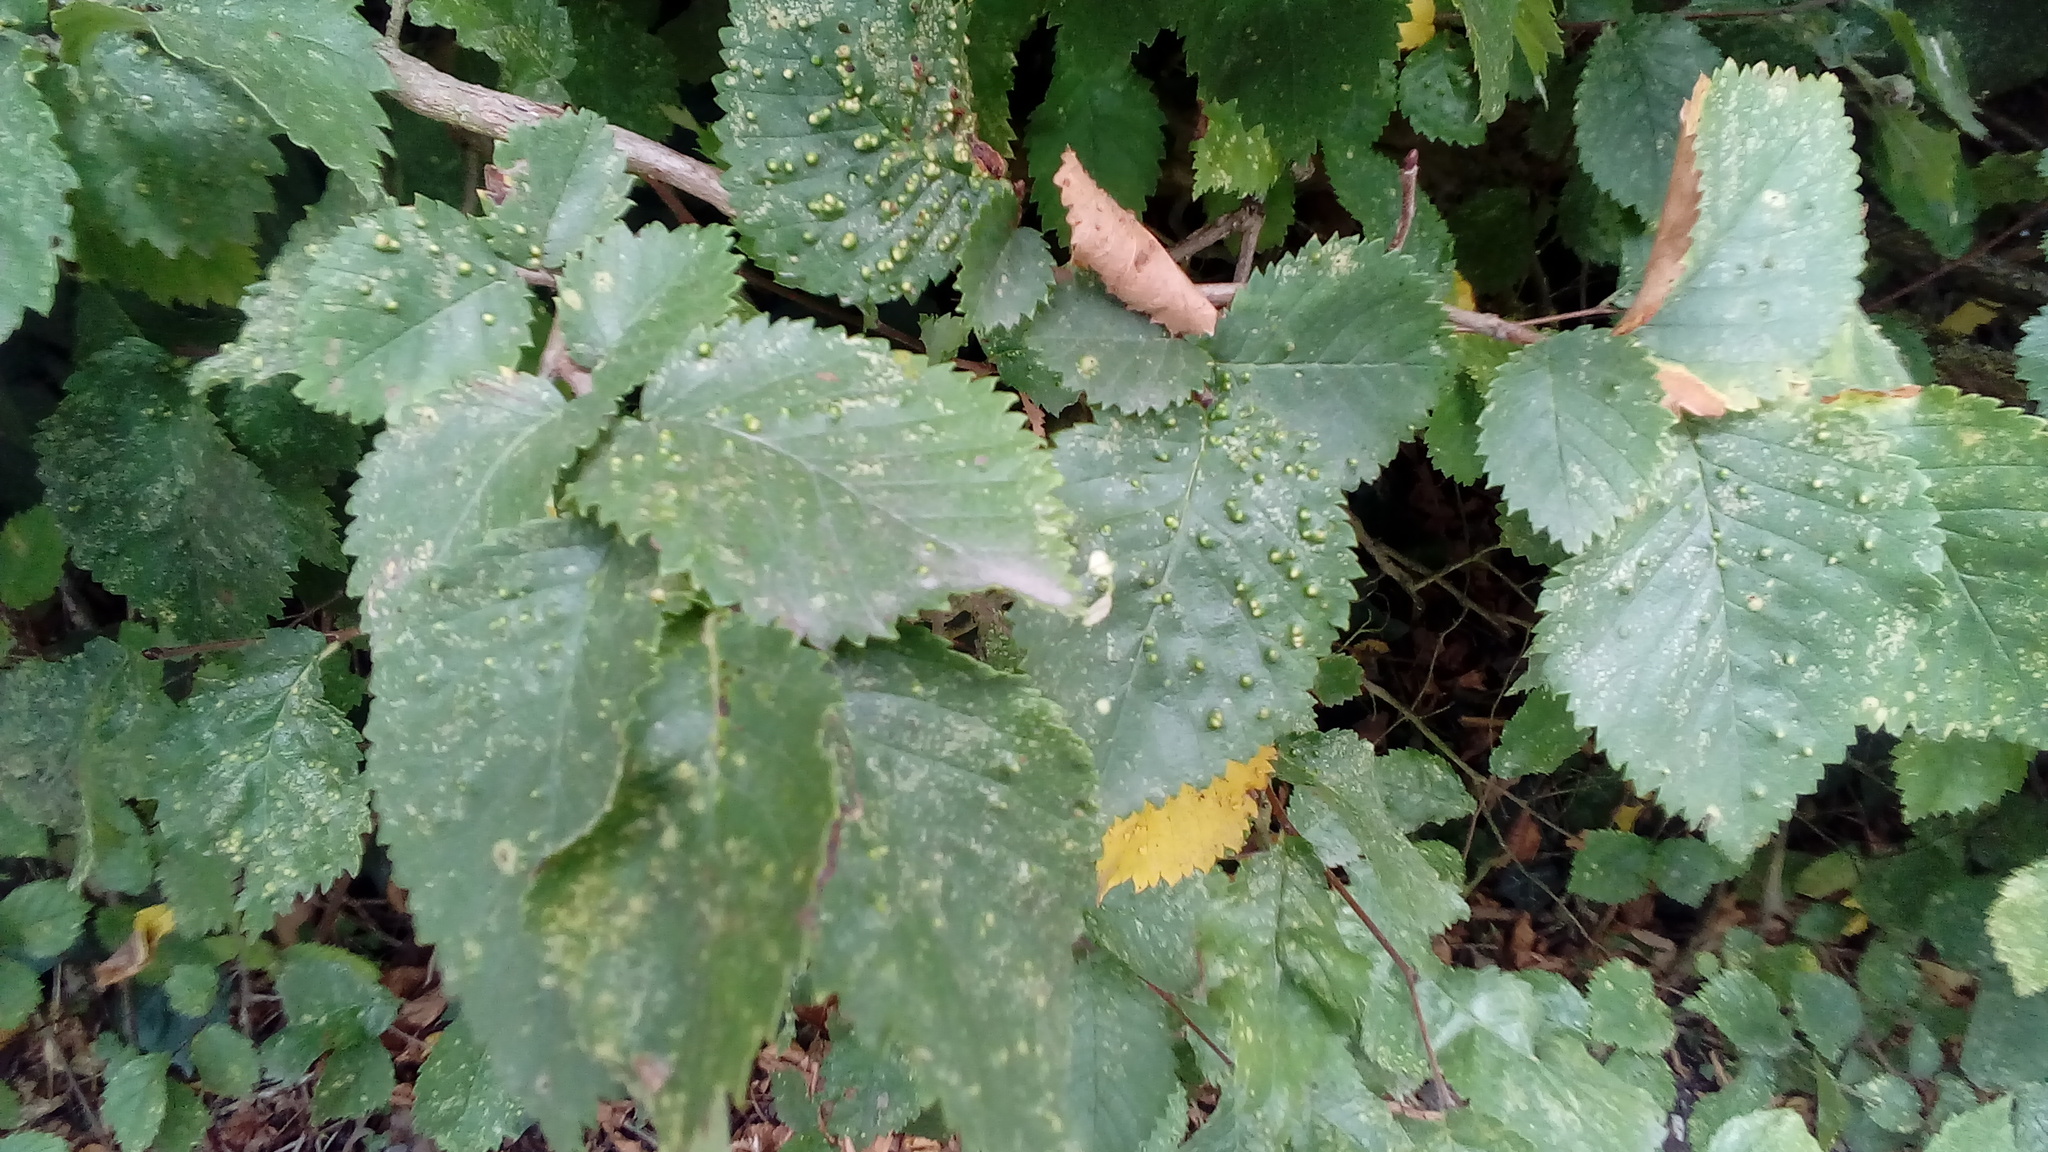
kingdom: Animalia
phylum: Arthropoda
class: Arachnida
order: Trombidiformes
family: Eriophyidae
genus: Aceria
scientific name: Aceria brevipunctata
